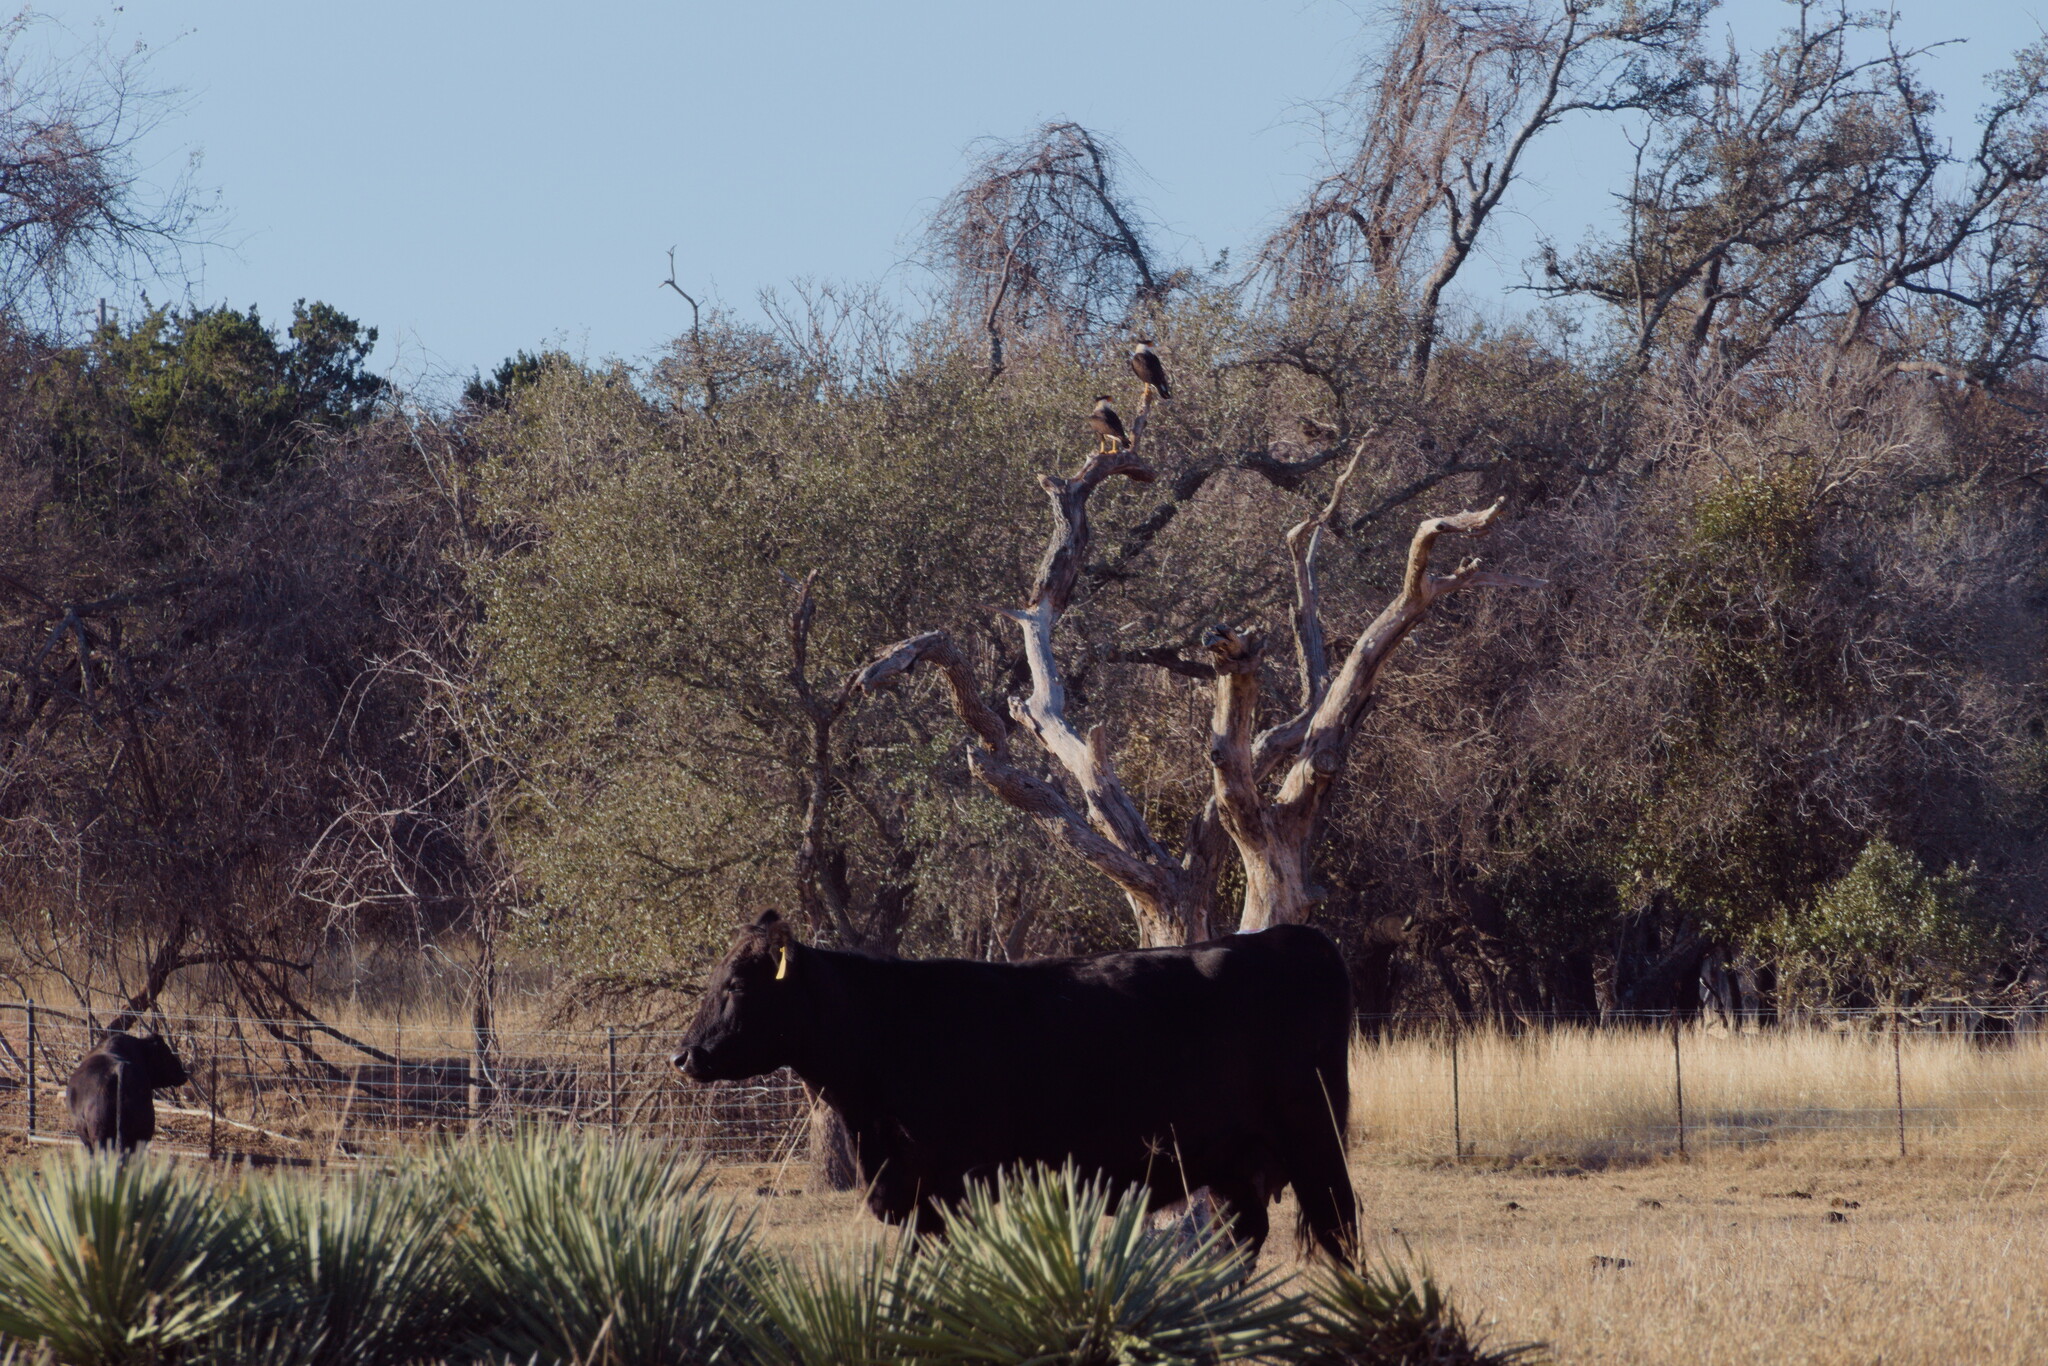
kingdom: Animalia
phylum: Chordata
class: Aves
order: Falconiformes
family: Falconidae
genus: Caracara
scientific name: Caracara plancus
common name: Southern caracara
